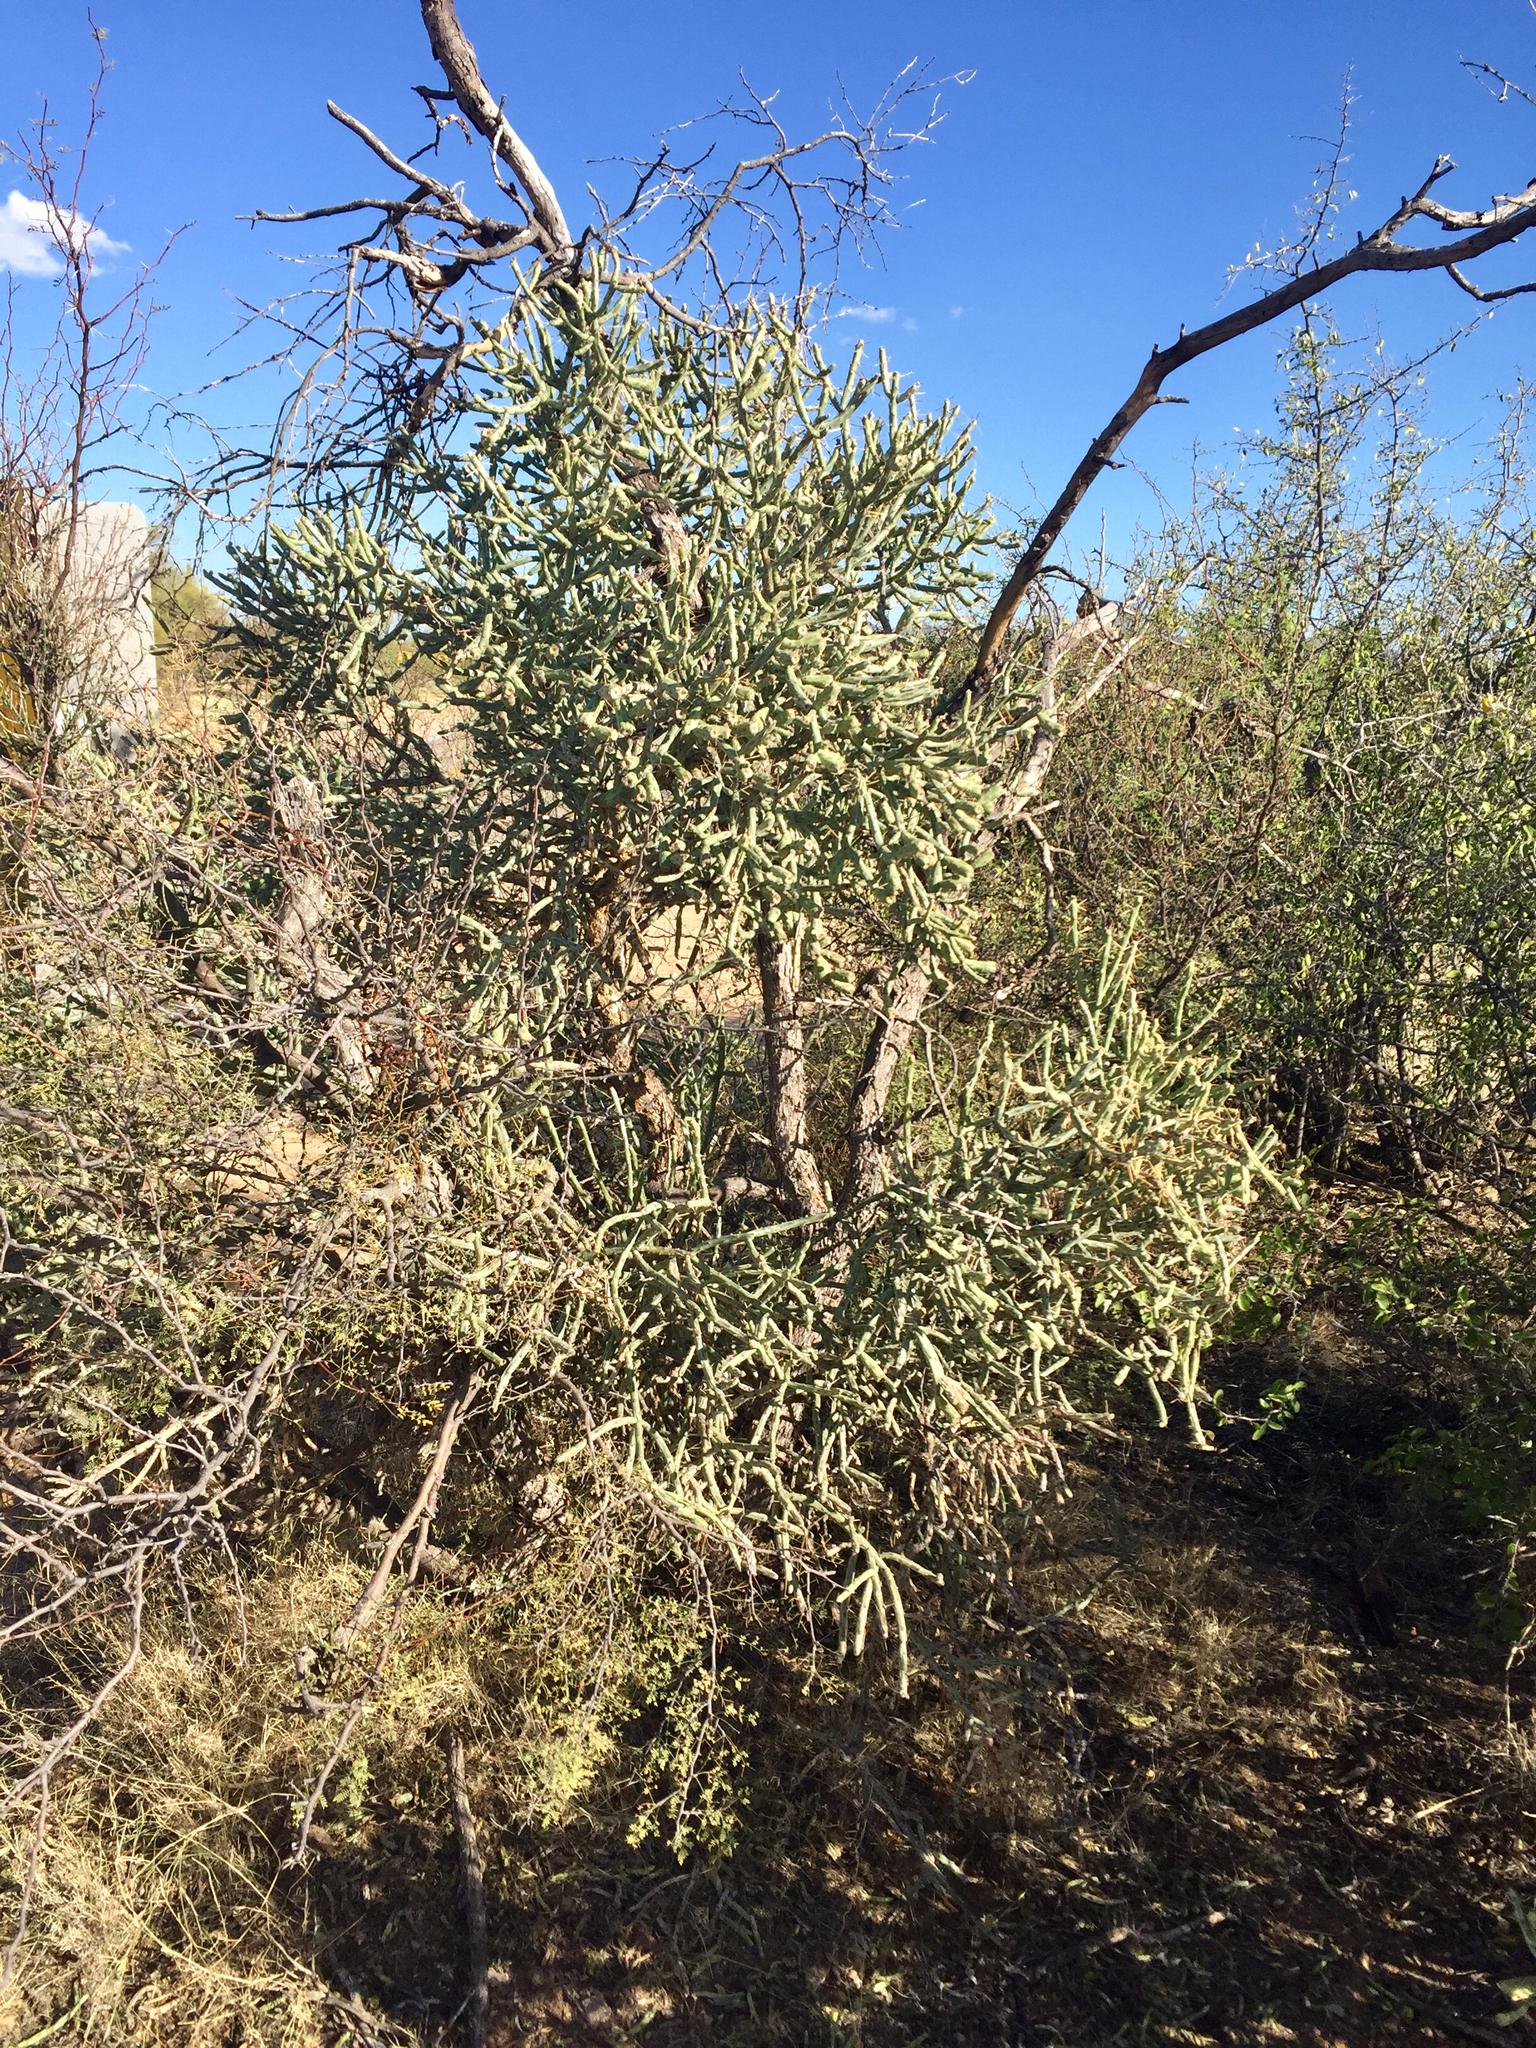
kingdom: Plantae
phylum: Tracheophyta
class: Magnoliopsida
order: Caryophyllales
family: Cactaceae
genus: Cylindropuntia
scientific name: Cylindropuntia arbuscula
